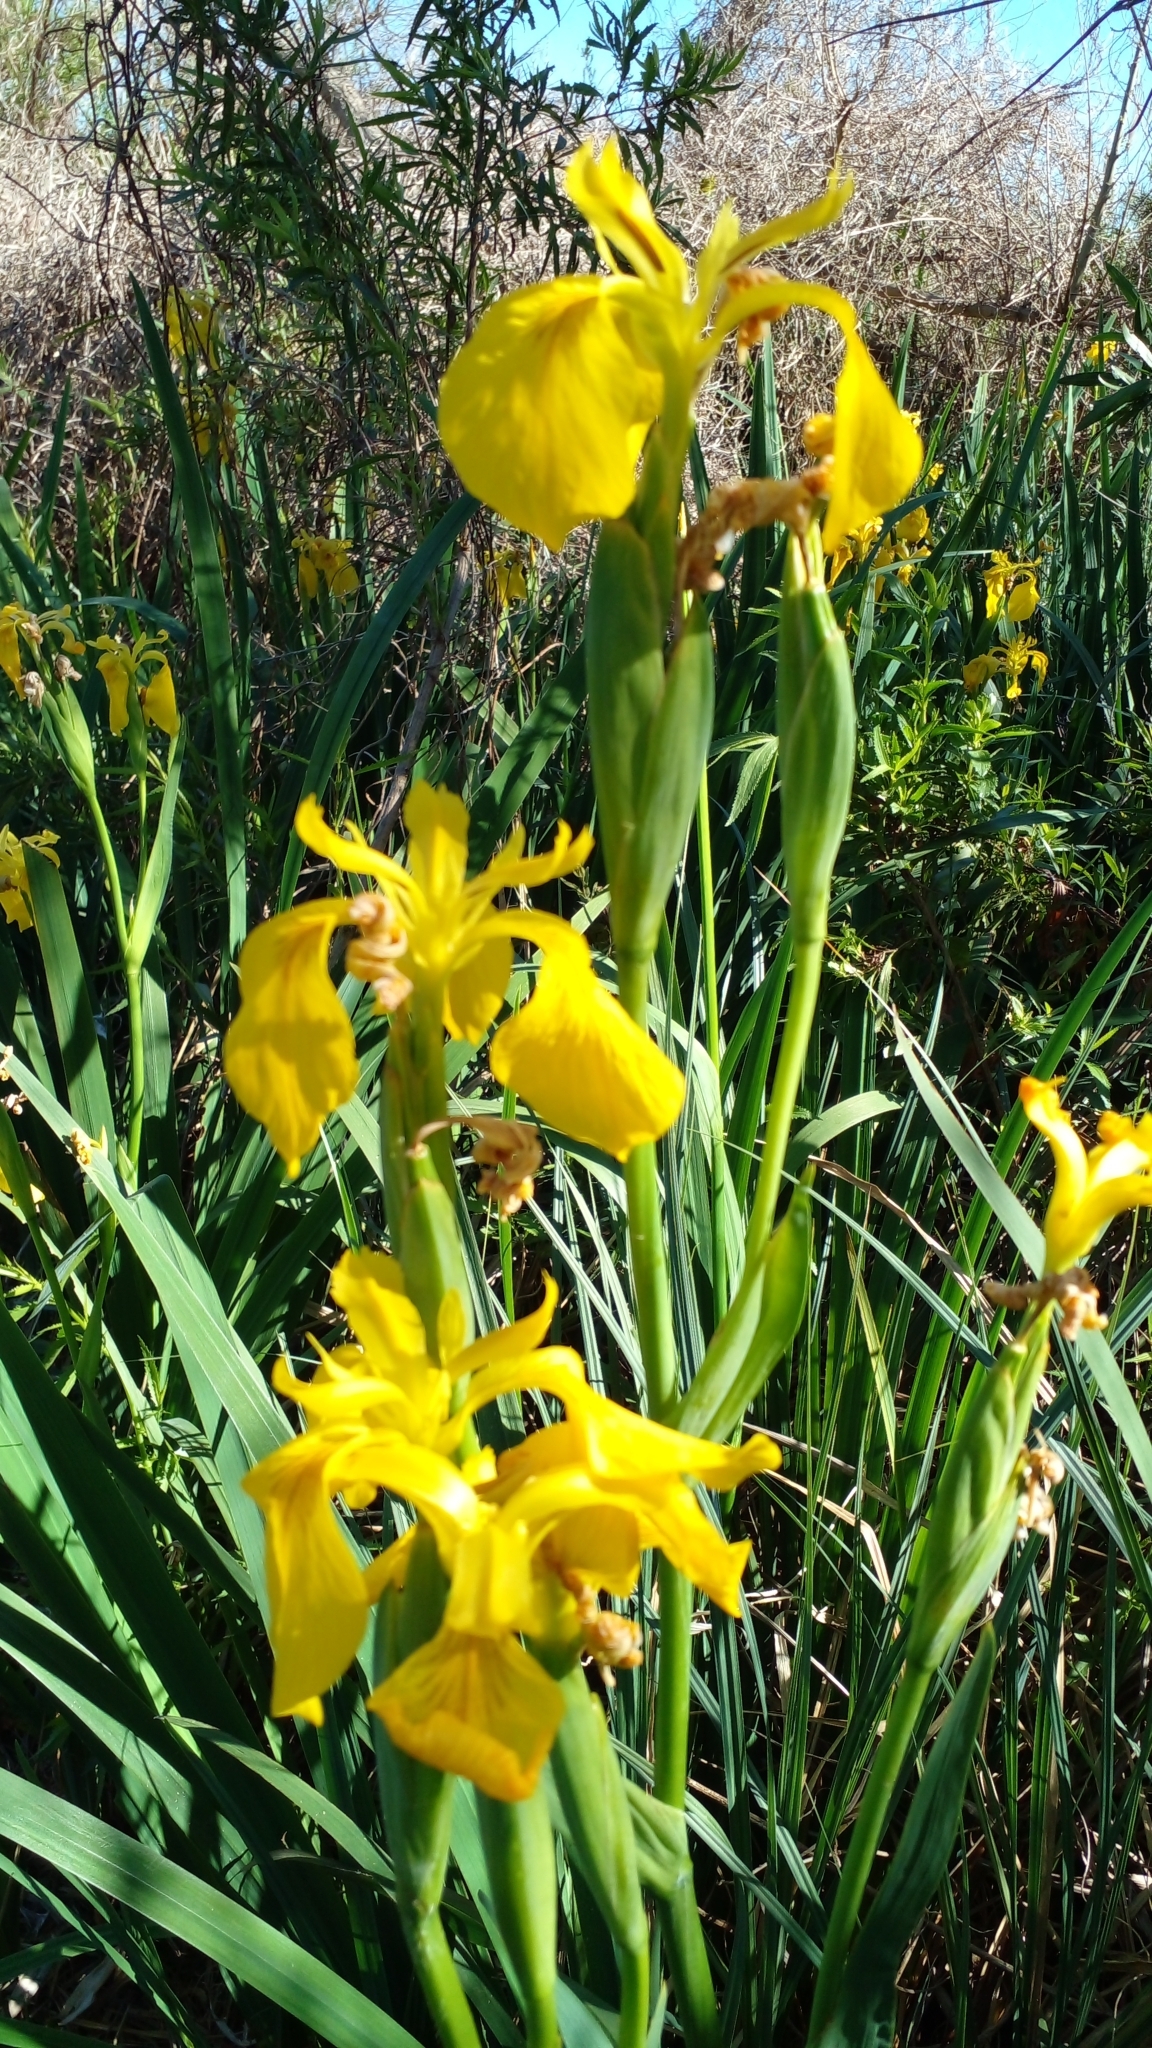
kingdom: Plantae
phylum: Tracheophyta
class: Liliopsida
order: Asparagales
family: Iridaceae
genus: Iris
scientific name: Iris pseudacorus
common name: Yellow flag
